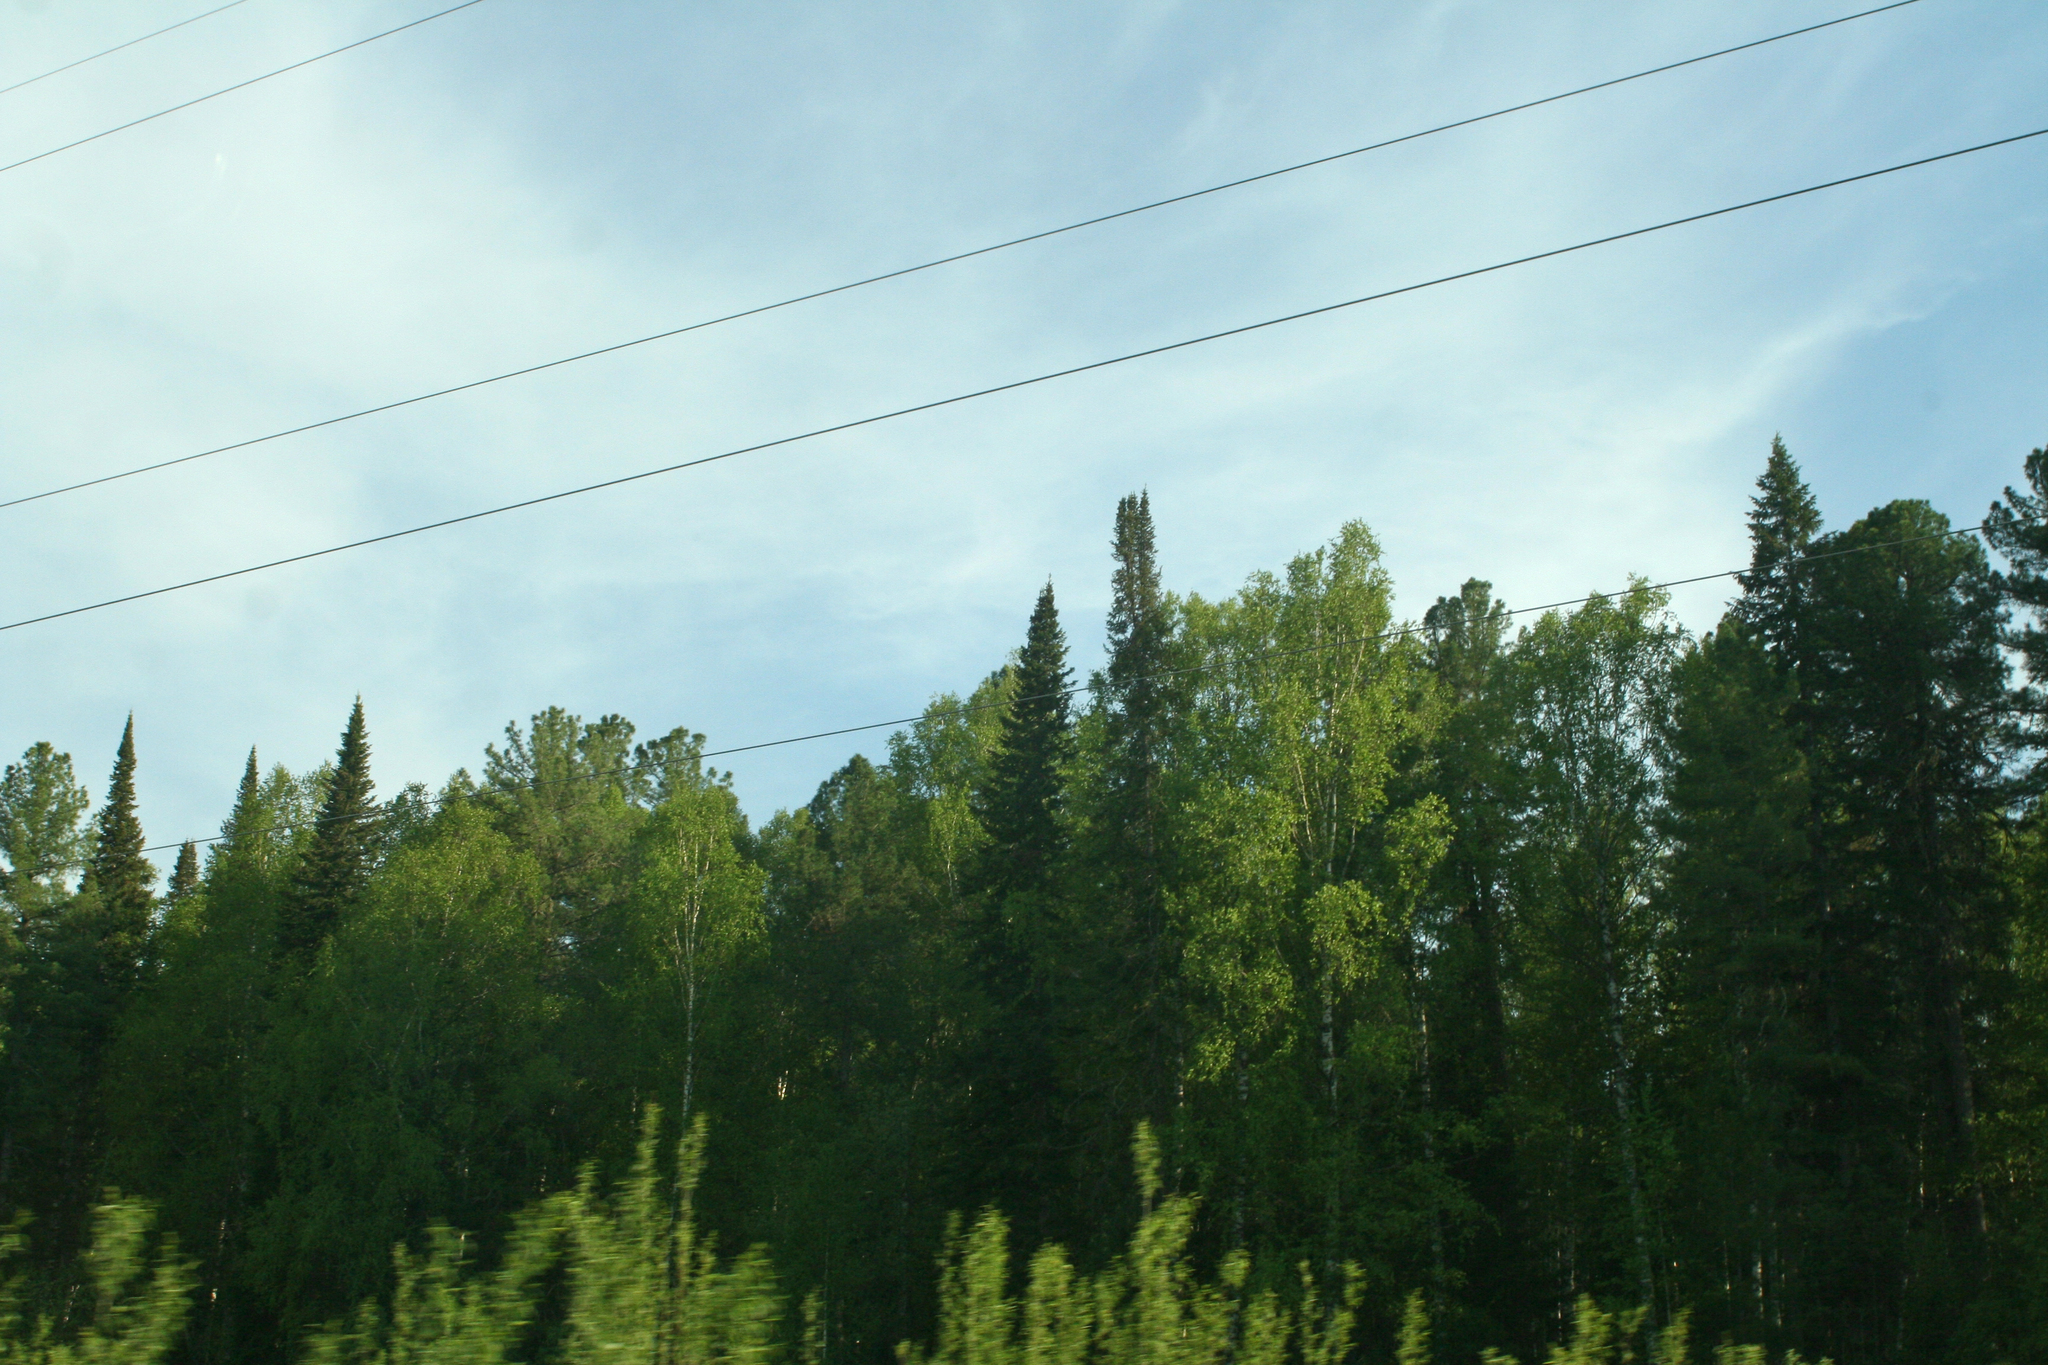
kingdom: Plantae
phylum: Tracheophyta
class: Pinopsida
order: Pinales
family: Pinaceae
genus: Pinus
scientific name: Pinus sibirica
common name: Siberian pine
